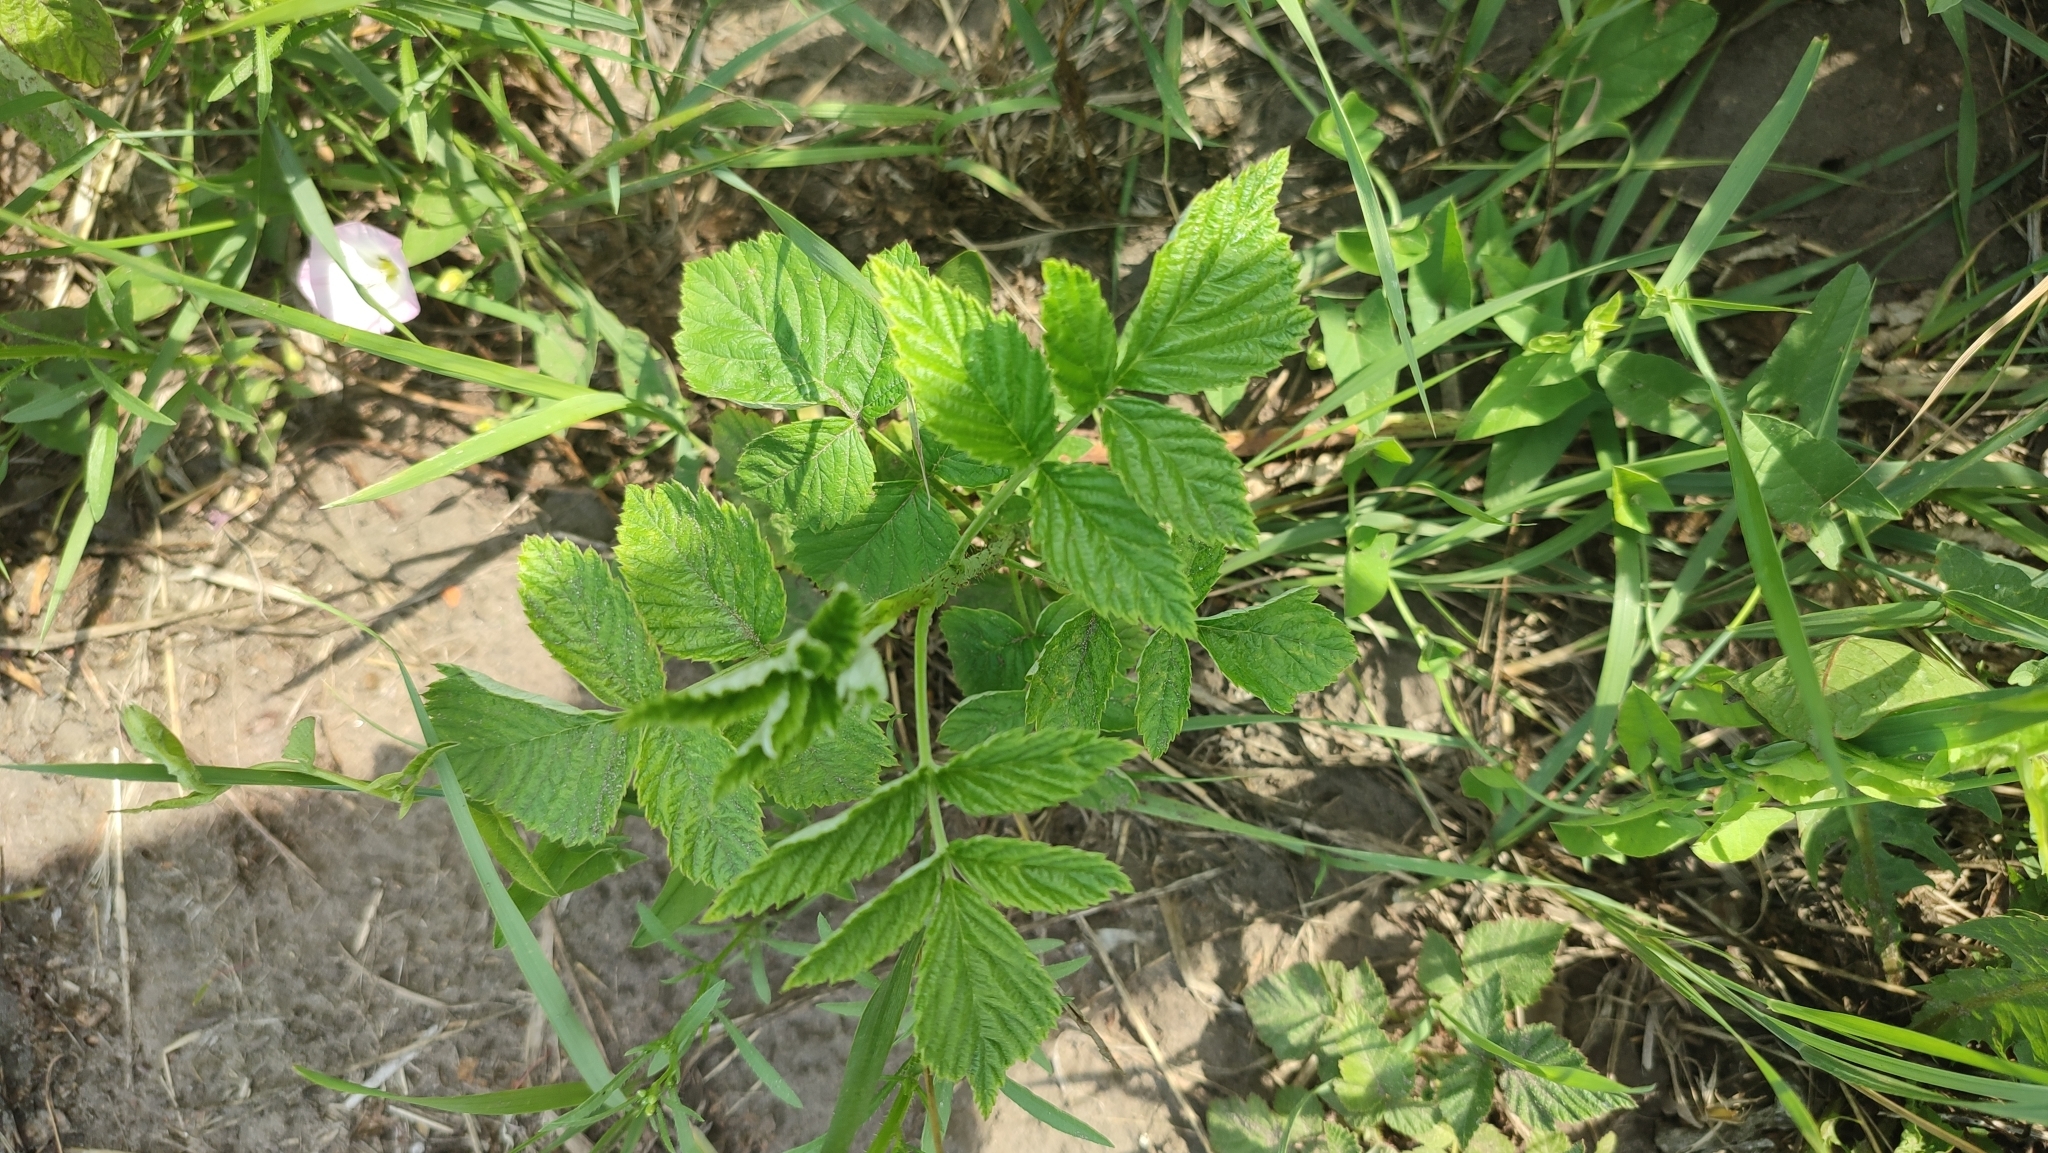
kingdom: Plantae
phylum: Tracheophyta
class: Magnoliopsida
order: Rosales
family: Rosaceae
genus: Rubus
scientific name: Rubus idaeus
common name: Raspberry
